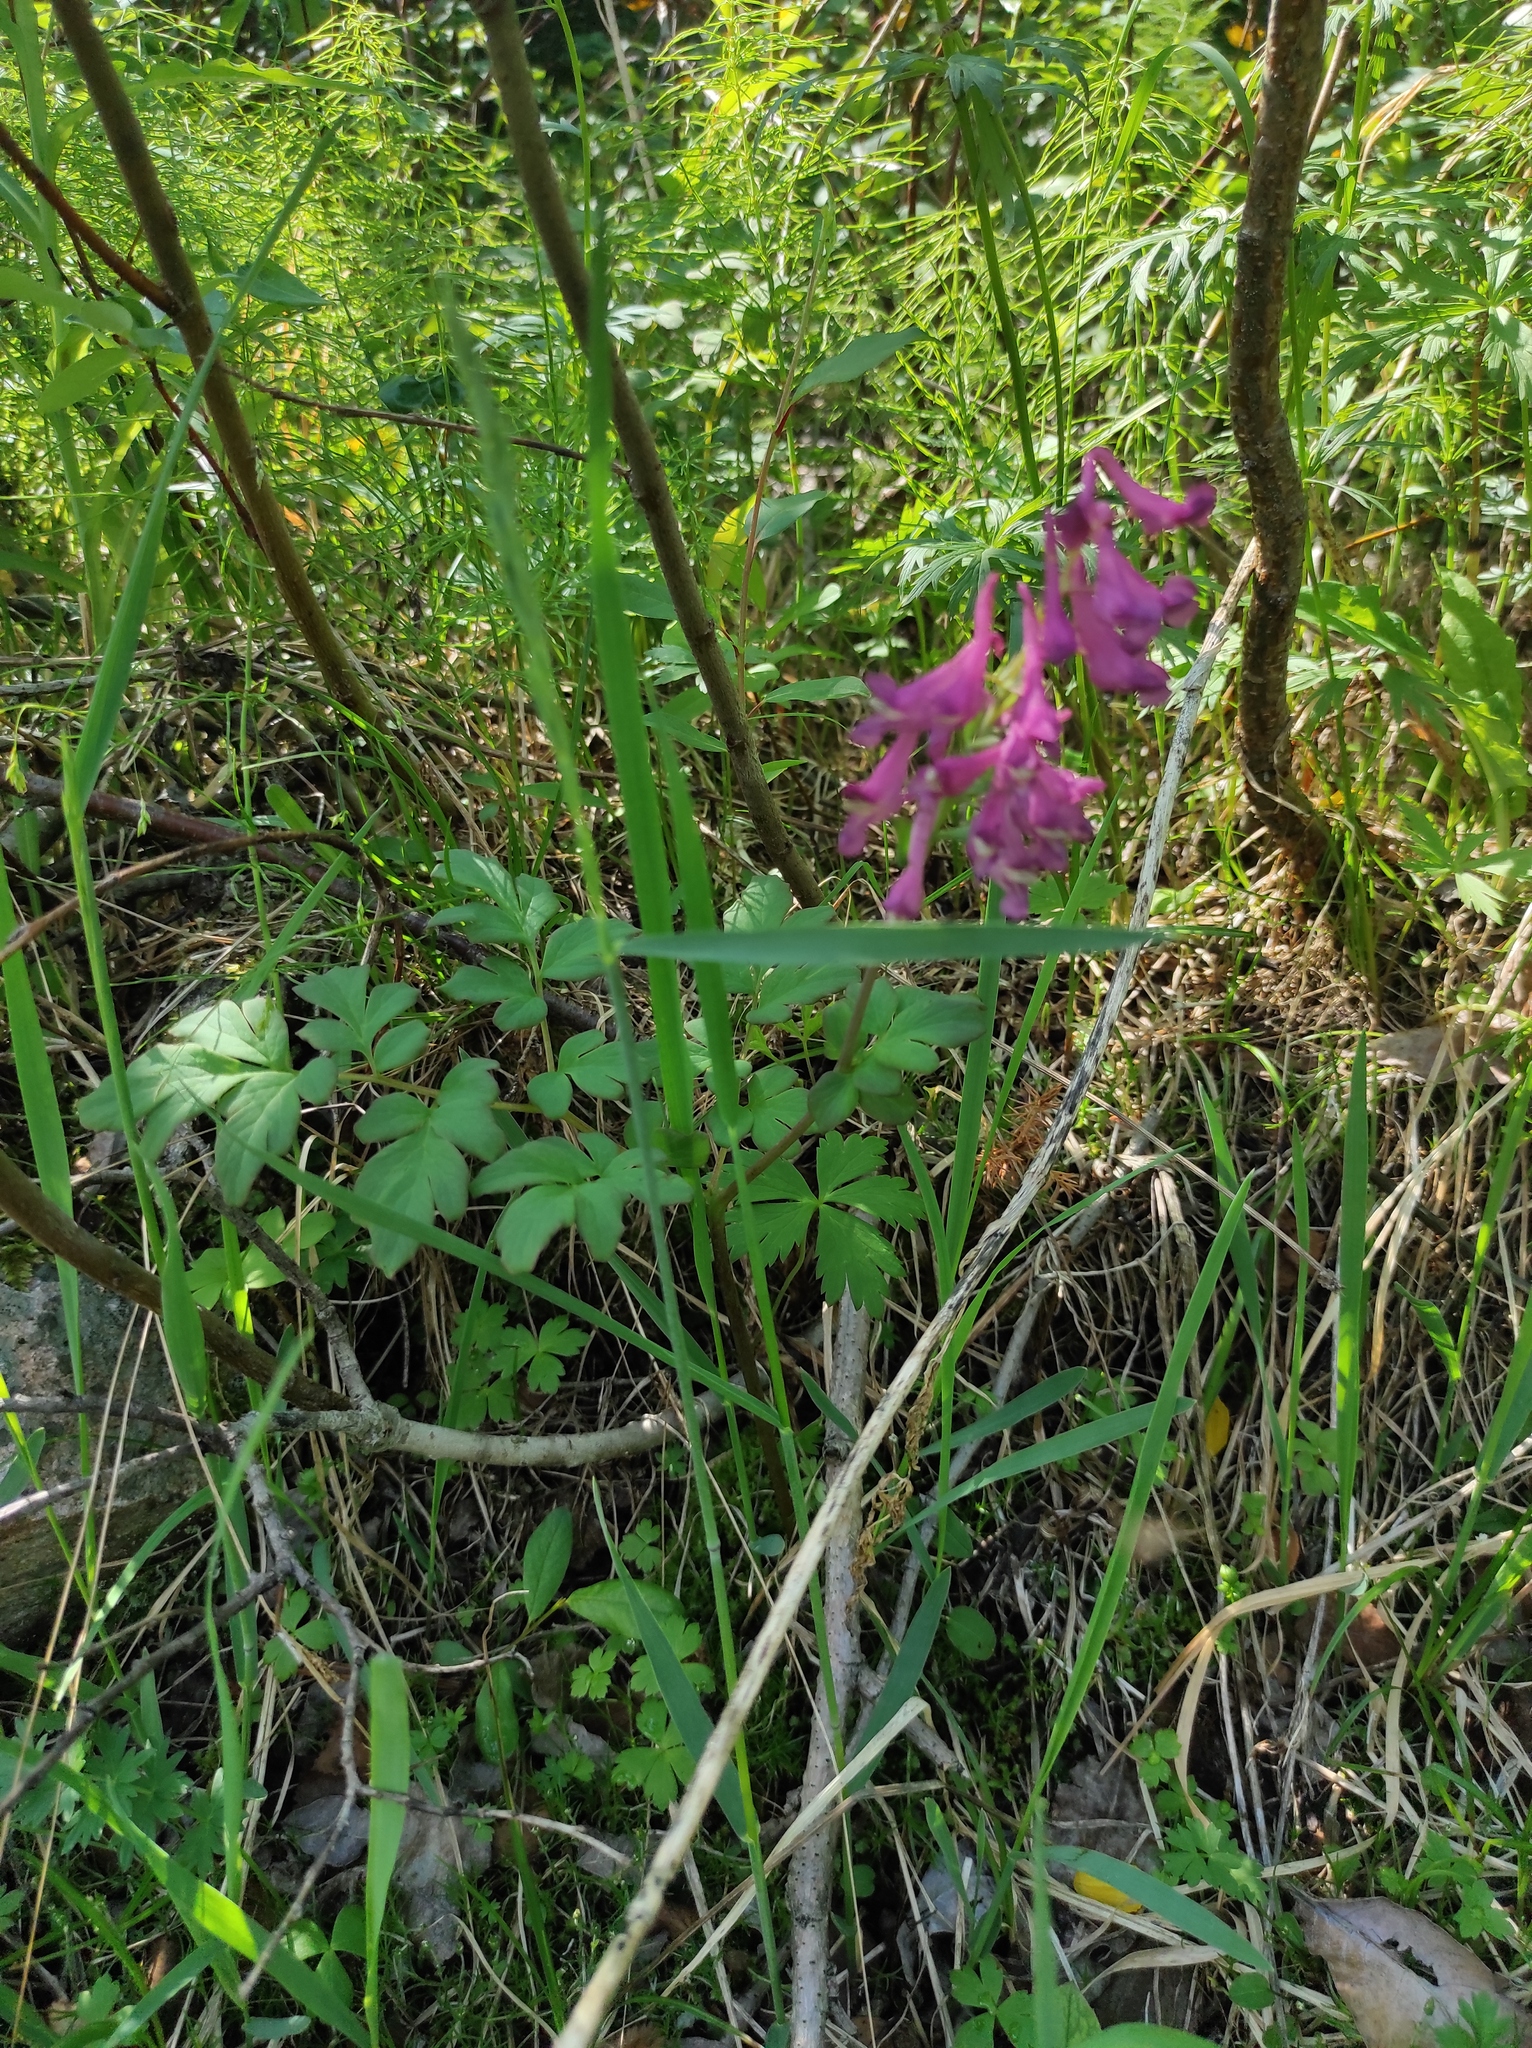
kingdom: Plantae
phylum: Tracheophyta
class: Magnoliopsida
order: Ranunculales
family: Papaveraceae
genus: Corydalis
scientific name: Corydalis paeoniifolia
